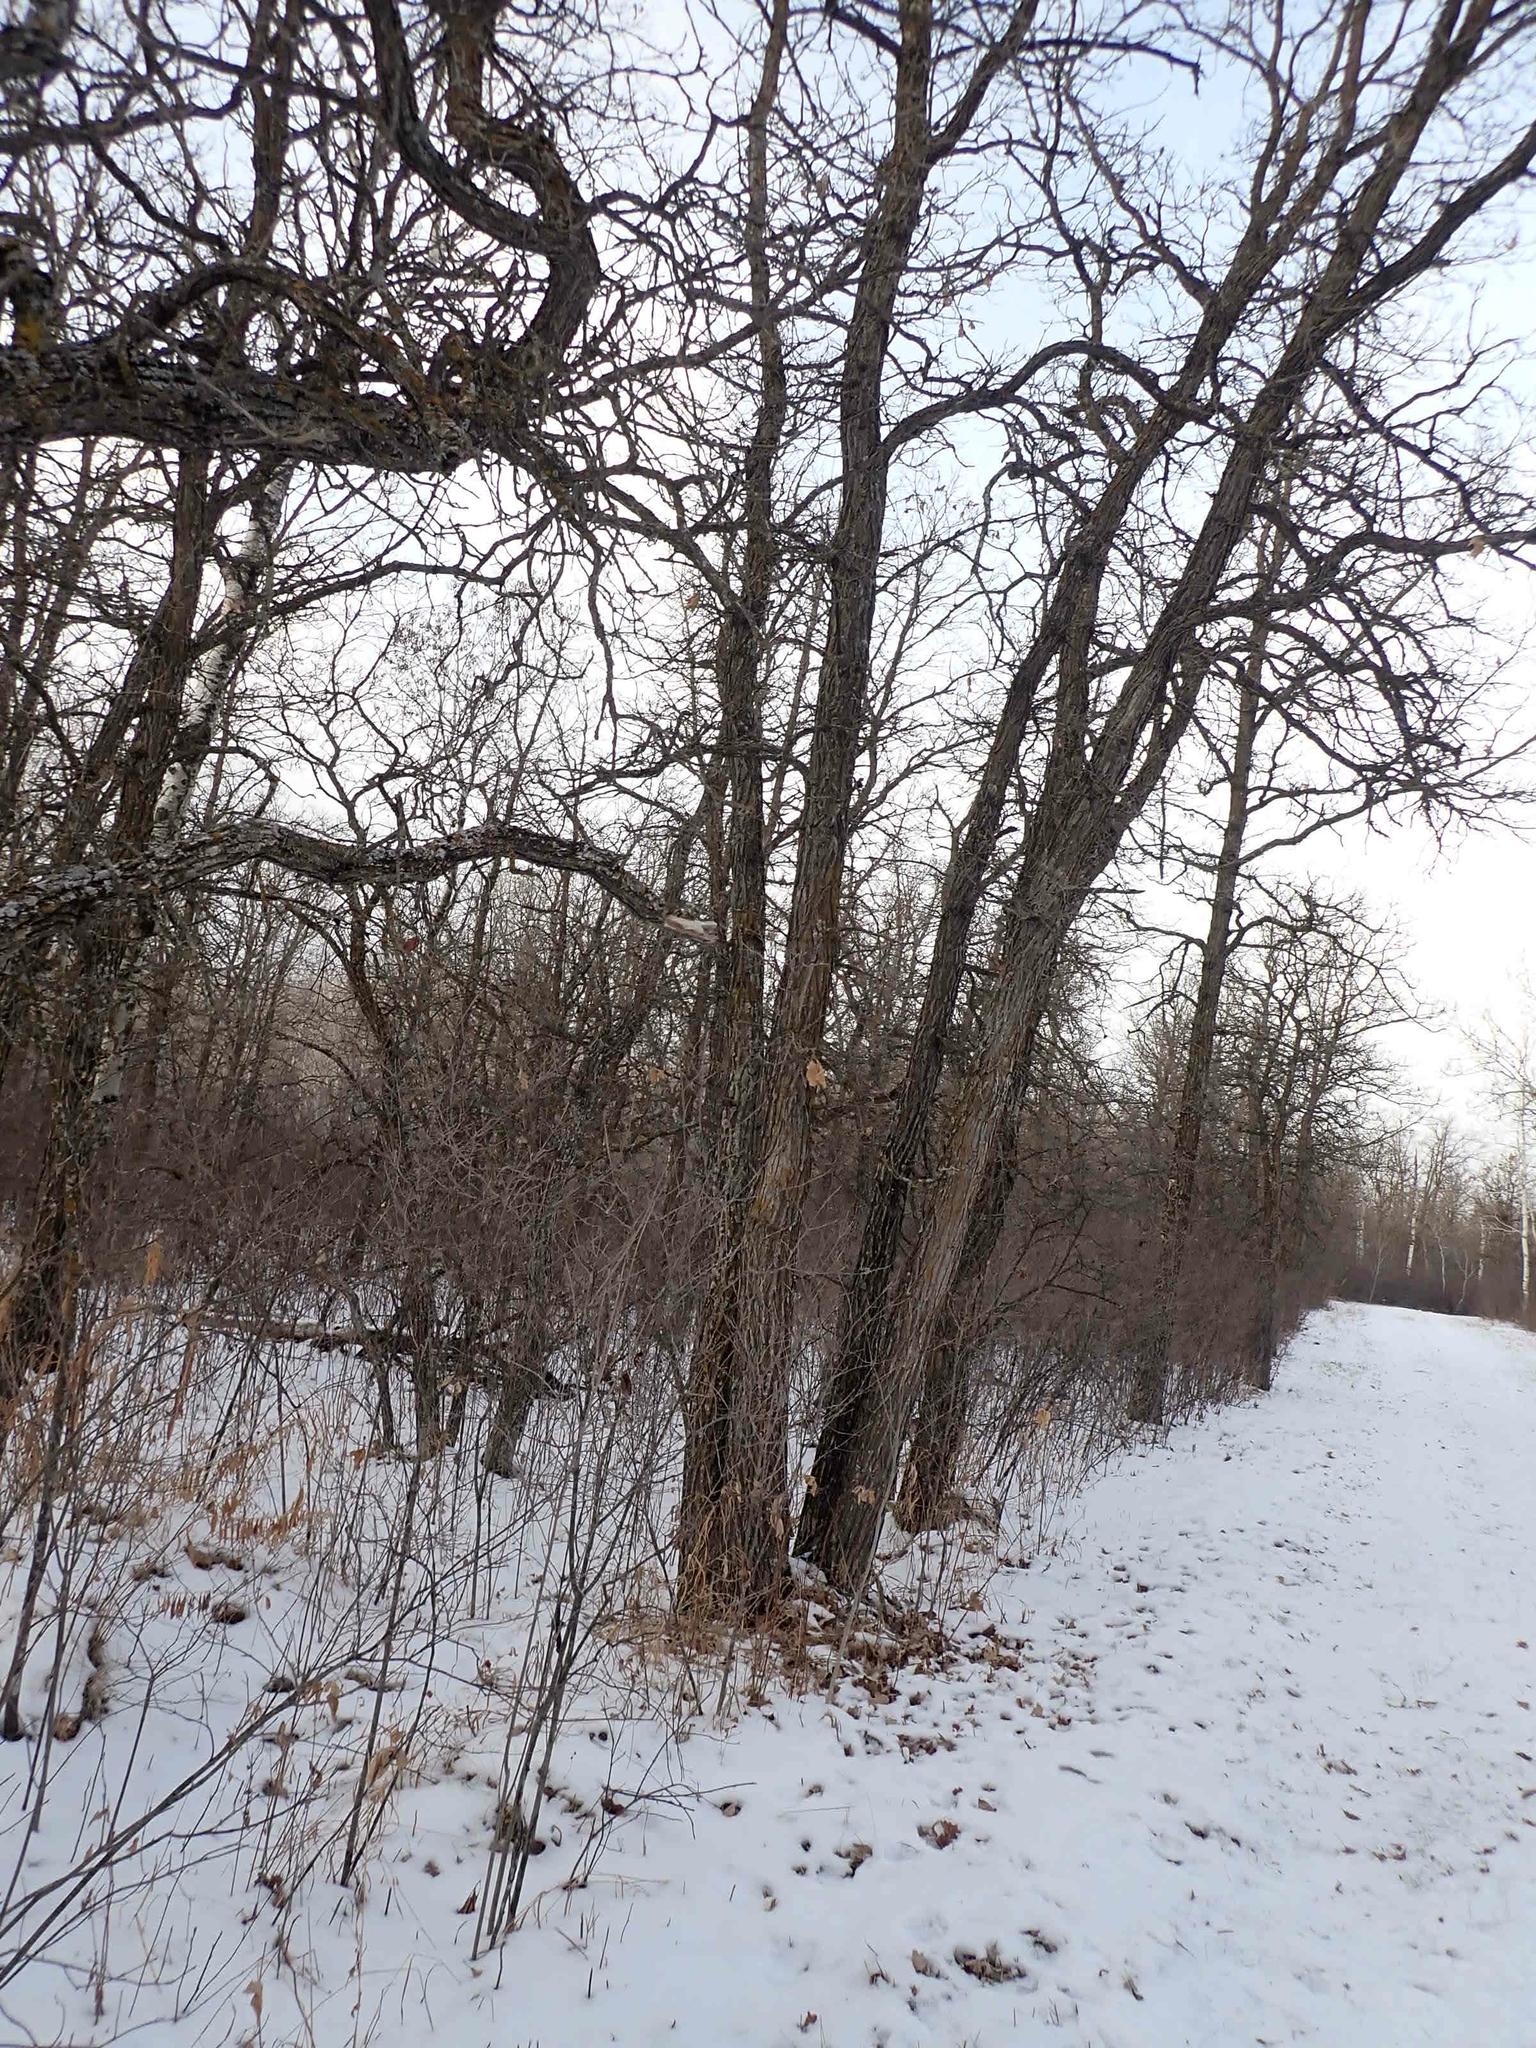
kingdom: Plantae
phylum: Tracheophyta
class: Magnoliopsida
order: Fagales
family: Fagaceae
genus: Quercus
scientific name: Quercus macrocarpa
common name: Bur oak
